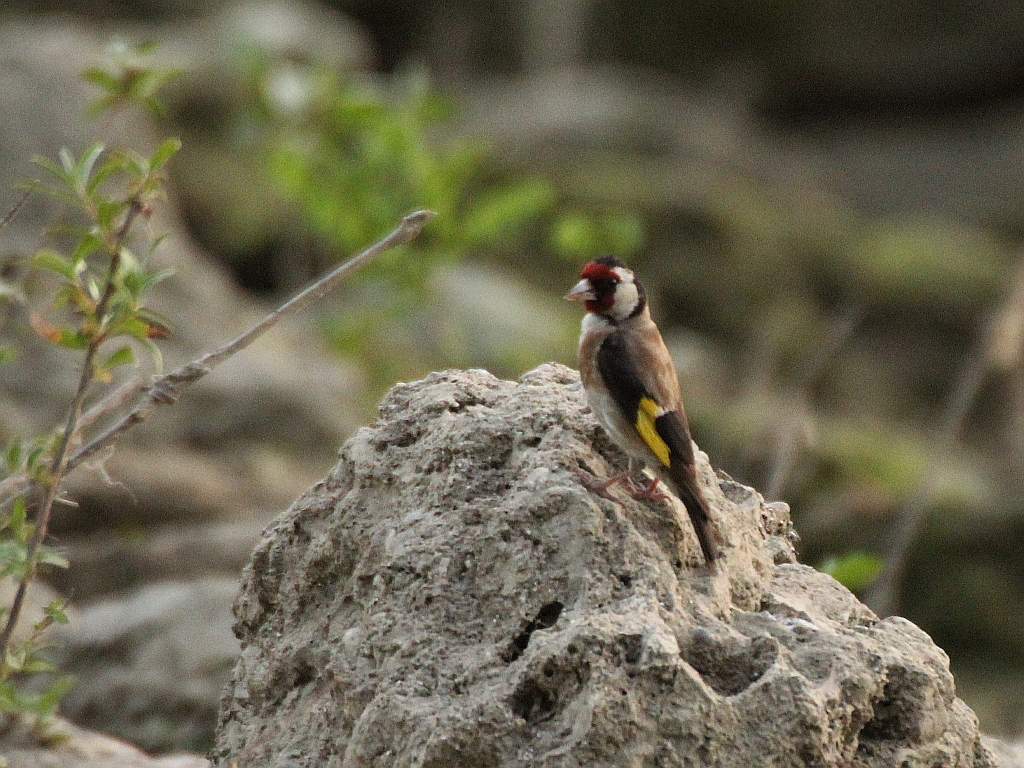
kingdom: Animalia
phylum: Chordata
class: Aves
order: Passeriformes
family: Fringillidae
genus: Carduelis
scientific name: Carduelis carduelis
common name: European goldfinch
